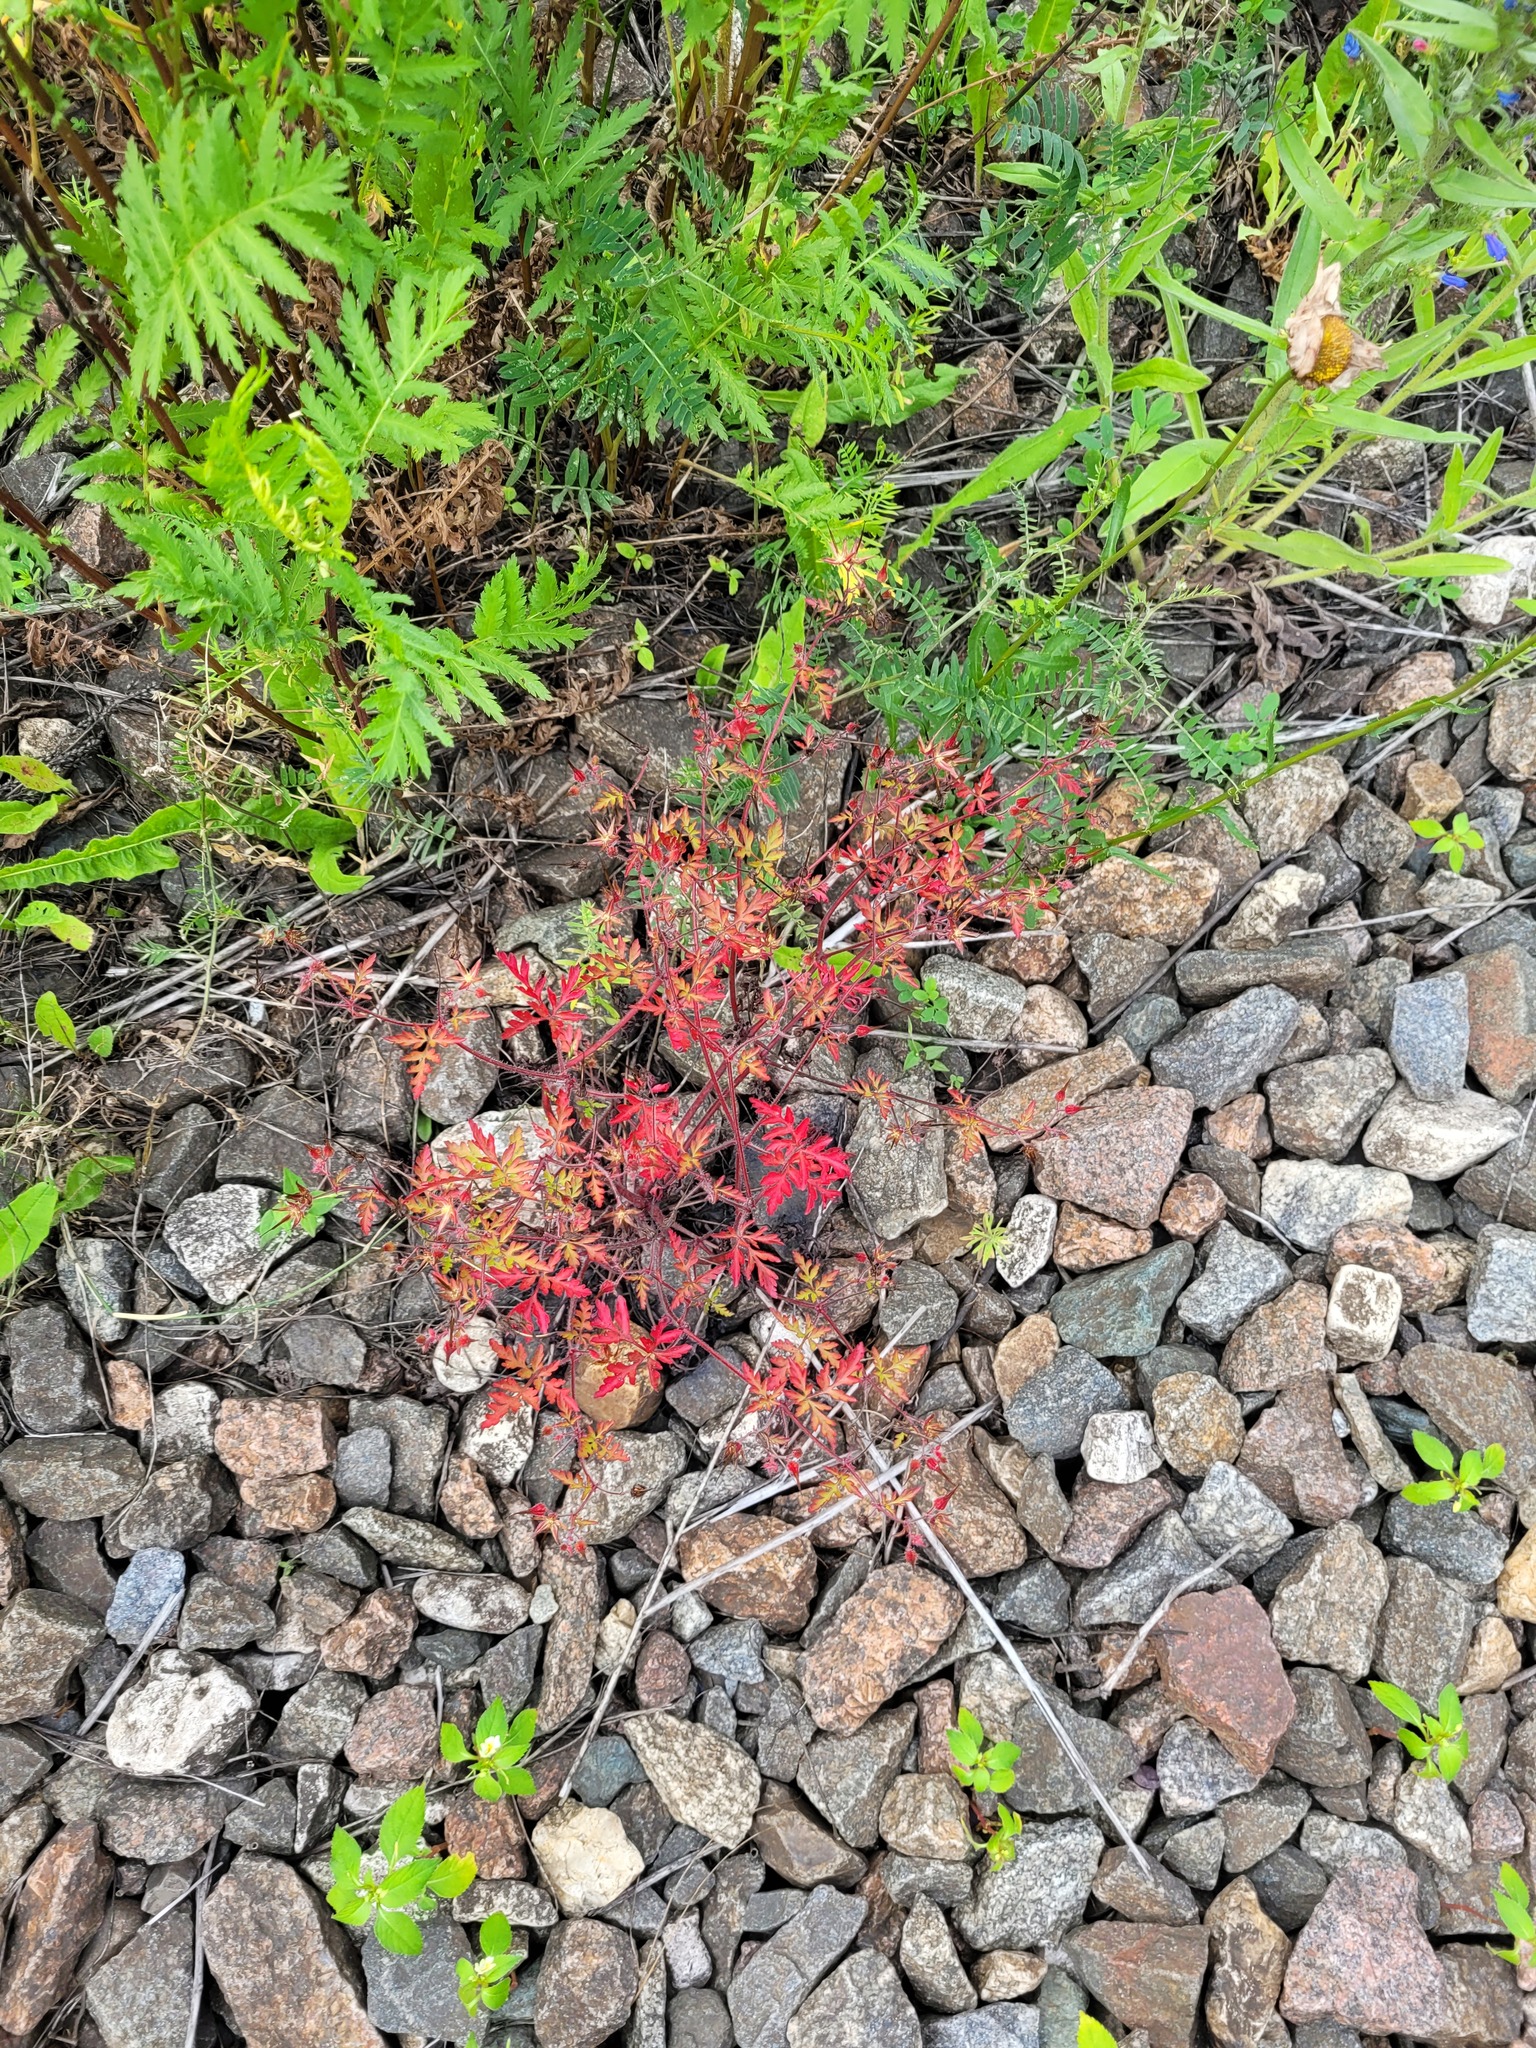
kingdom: Plantae
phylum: Tracheophyta
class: Magnoliopsida
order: Geraniales
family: Geraniaceae
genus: Geranium
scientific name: Geranium robertianum
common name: Herb-robert
